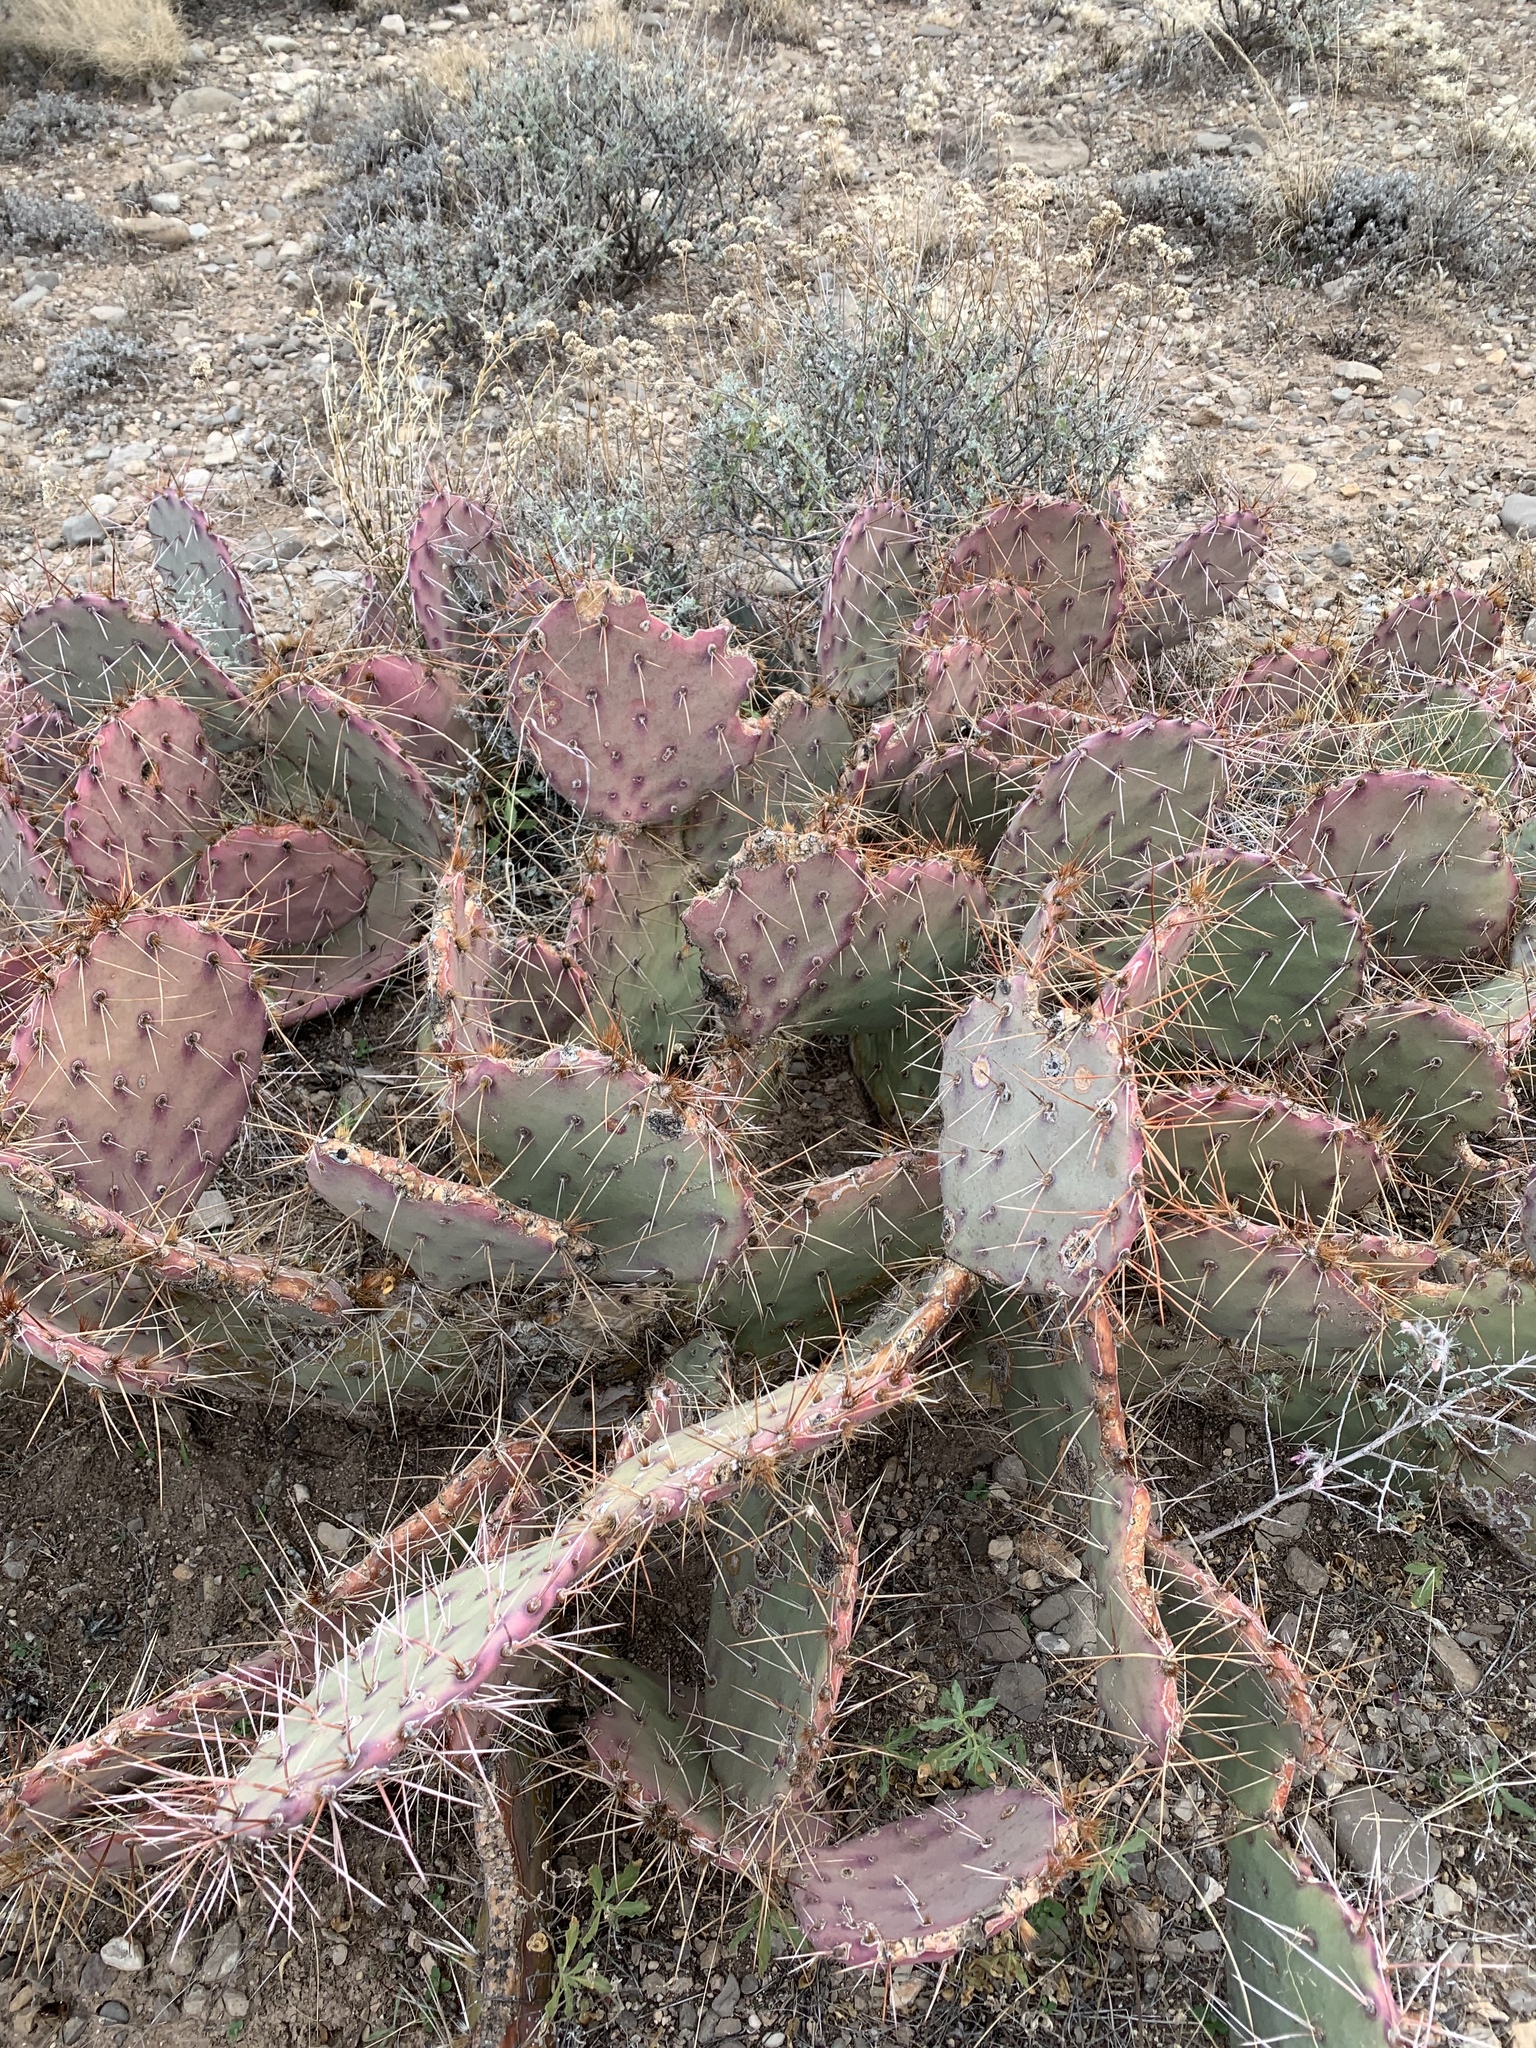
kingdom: Plantae
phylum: Tracheophyta
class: Magnoliopsida
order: Caryophyllales
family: Cactaceae
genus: Opuntia
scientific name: Opuntia macrocentra
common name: Purple prickly-pear
